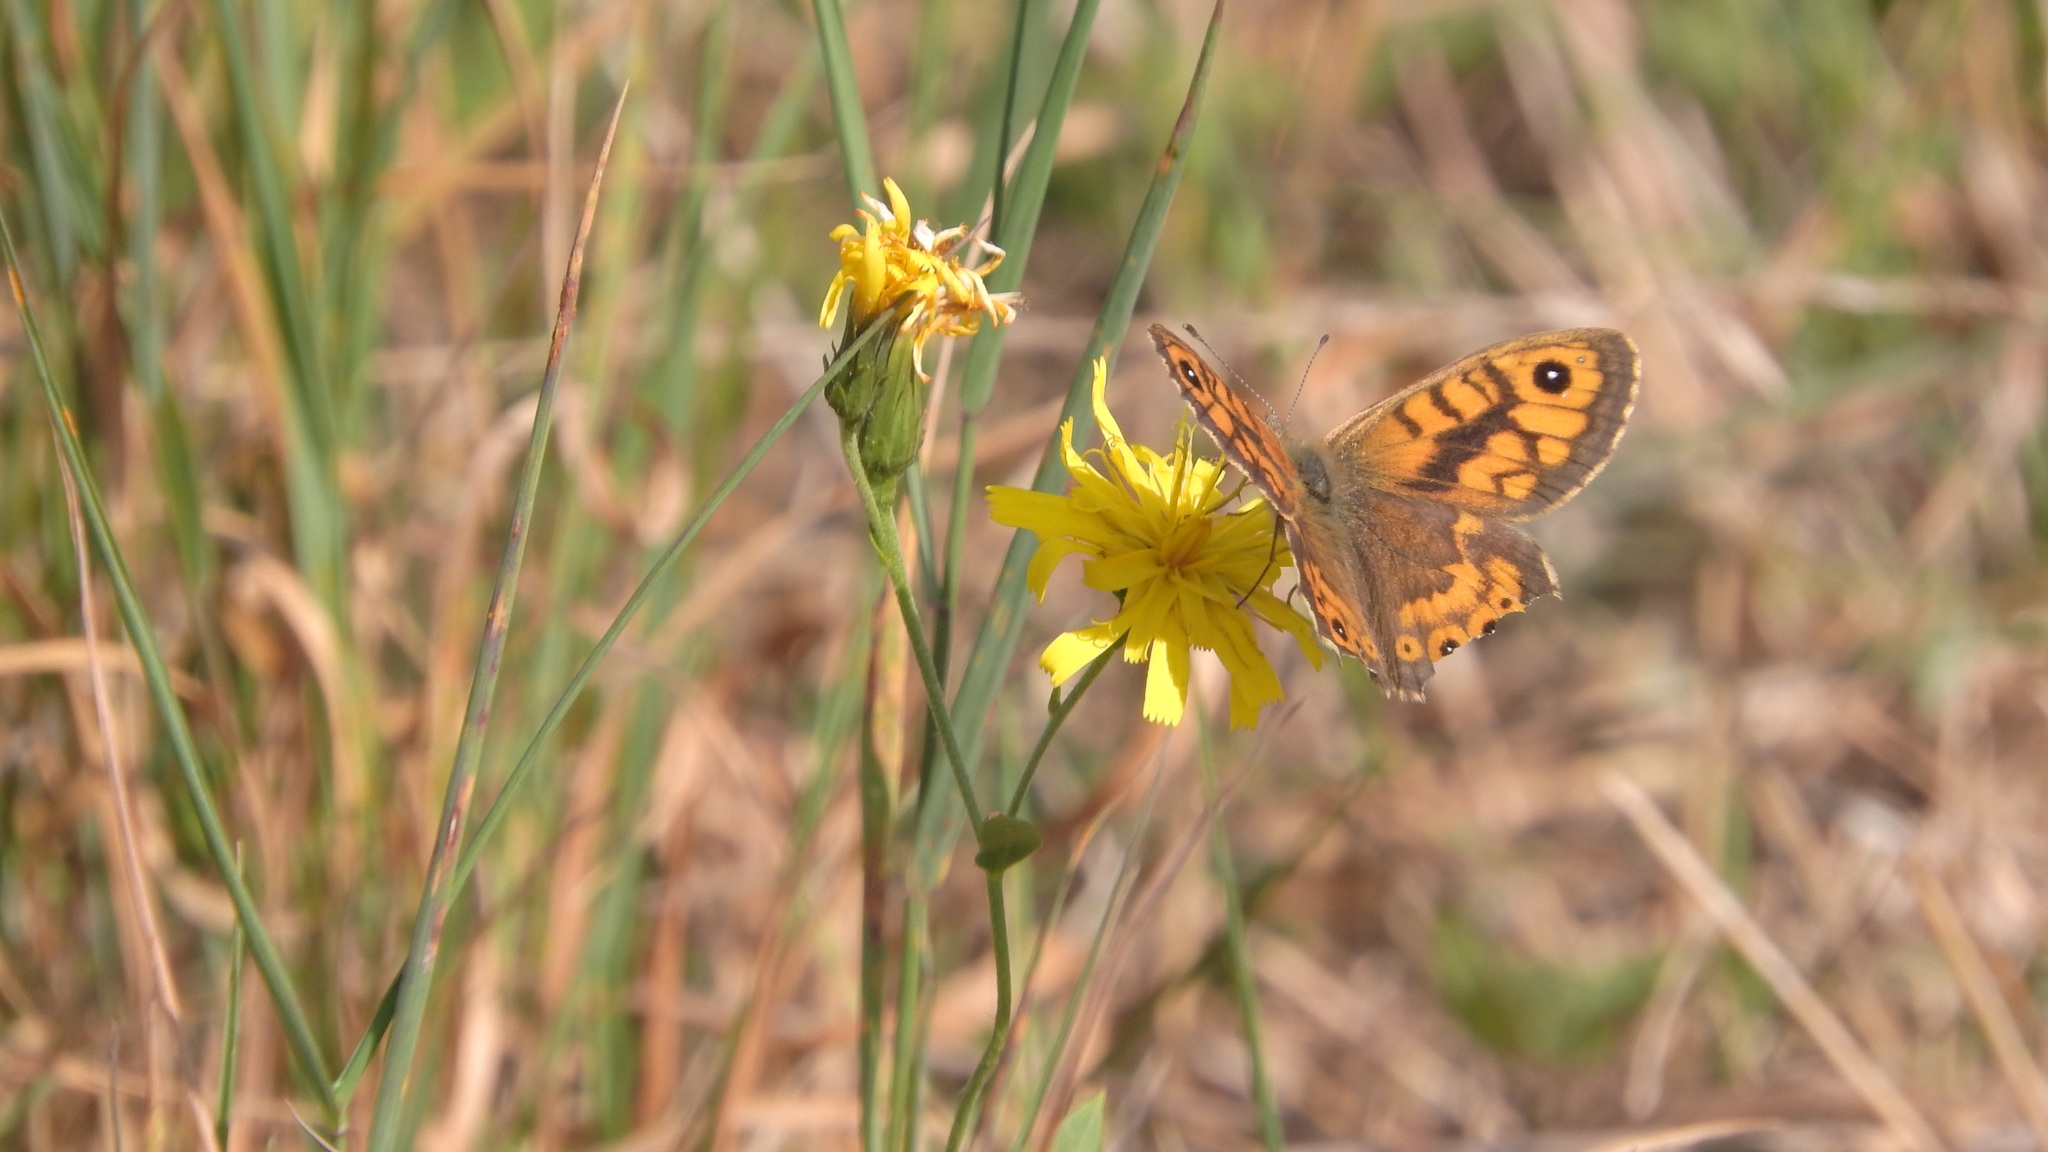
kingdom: Animalia
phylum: Arthropoda
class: Insecta
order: Lepidoptera
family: Nymphalidae
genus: Pararge
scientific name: Pararge Lasiommata megera
